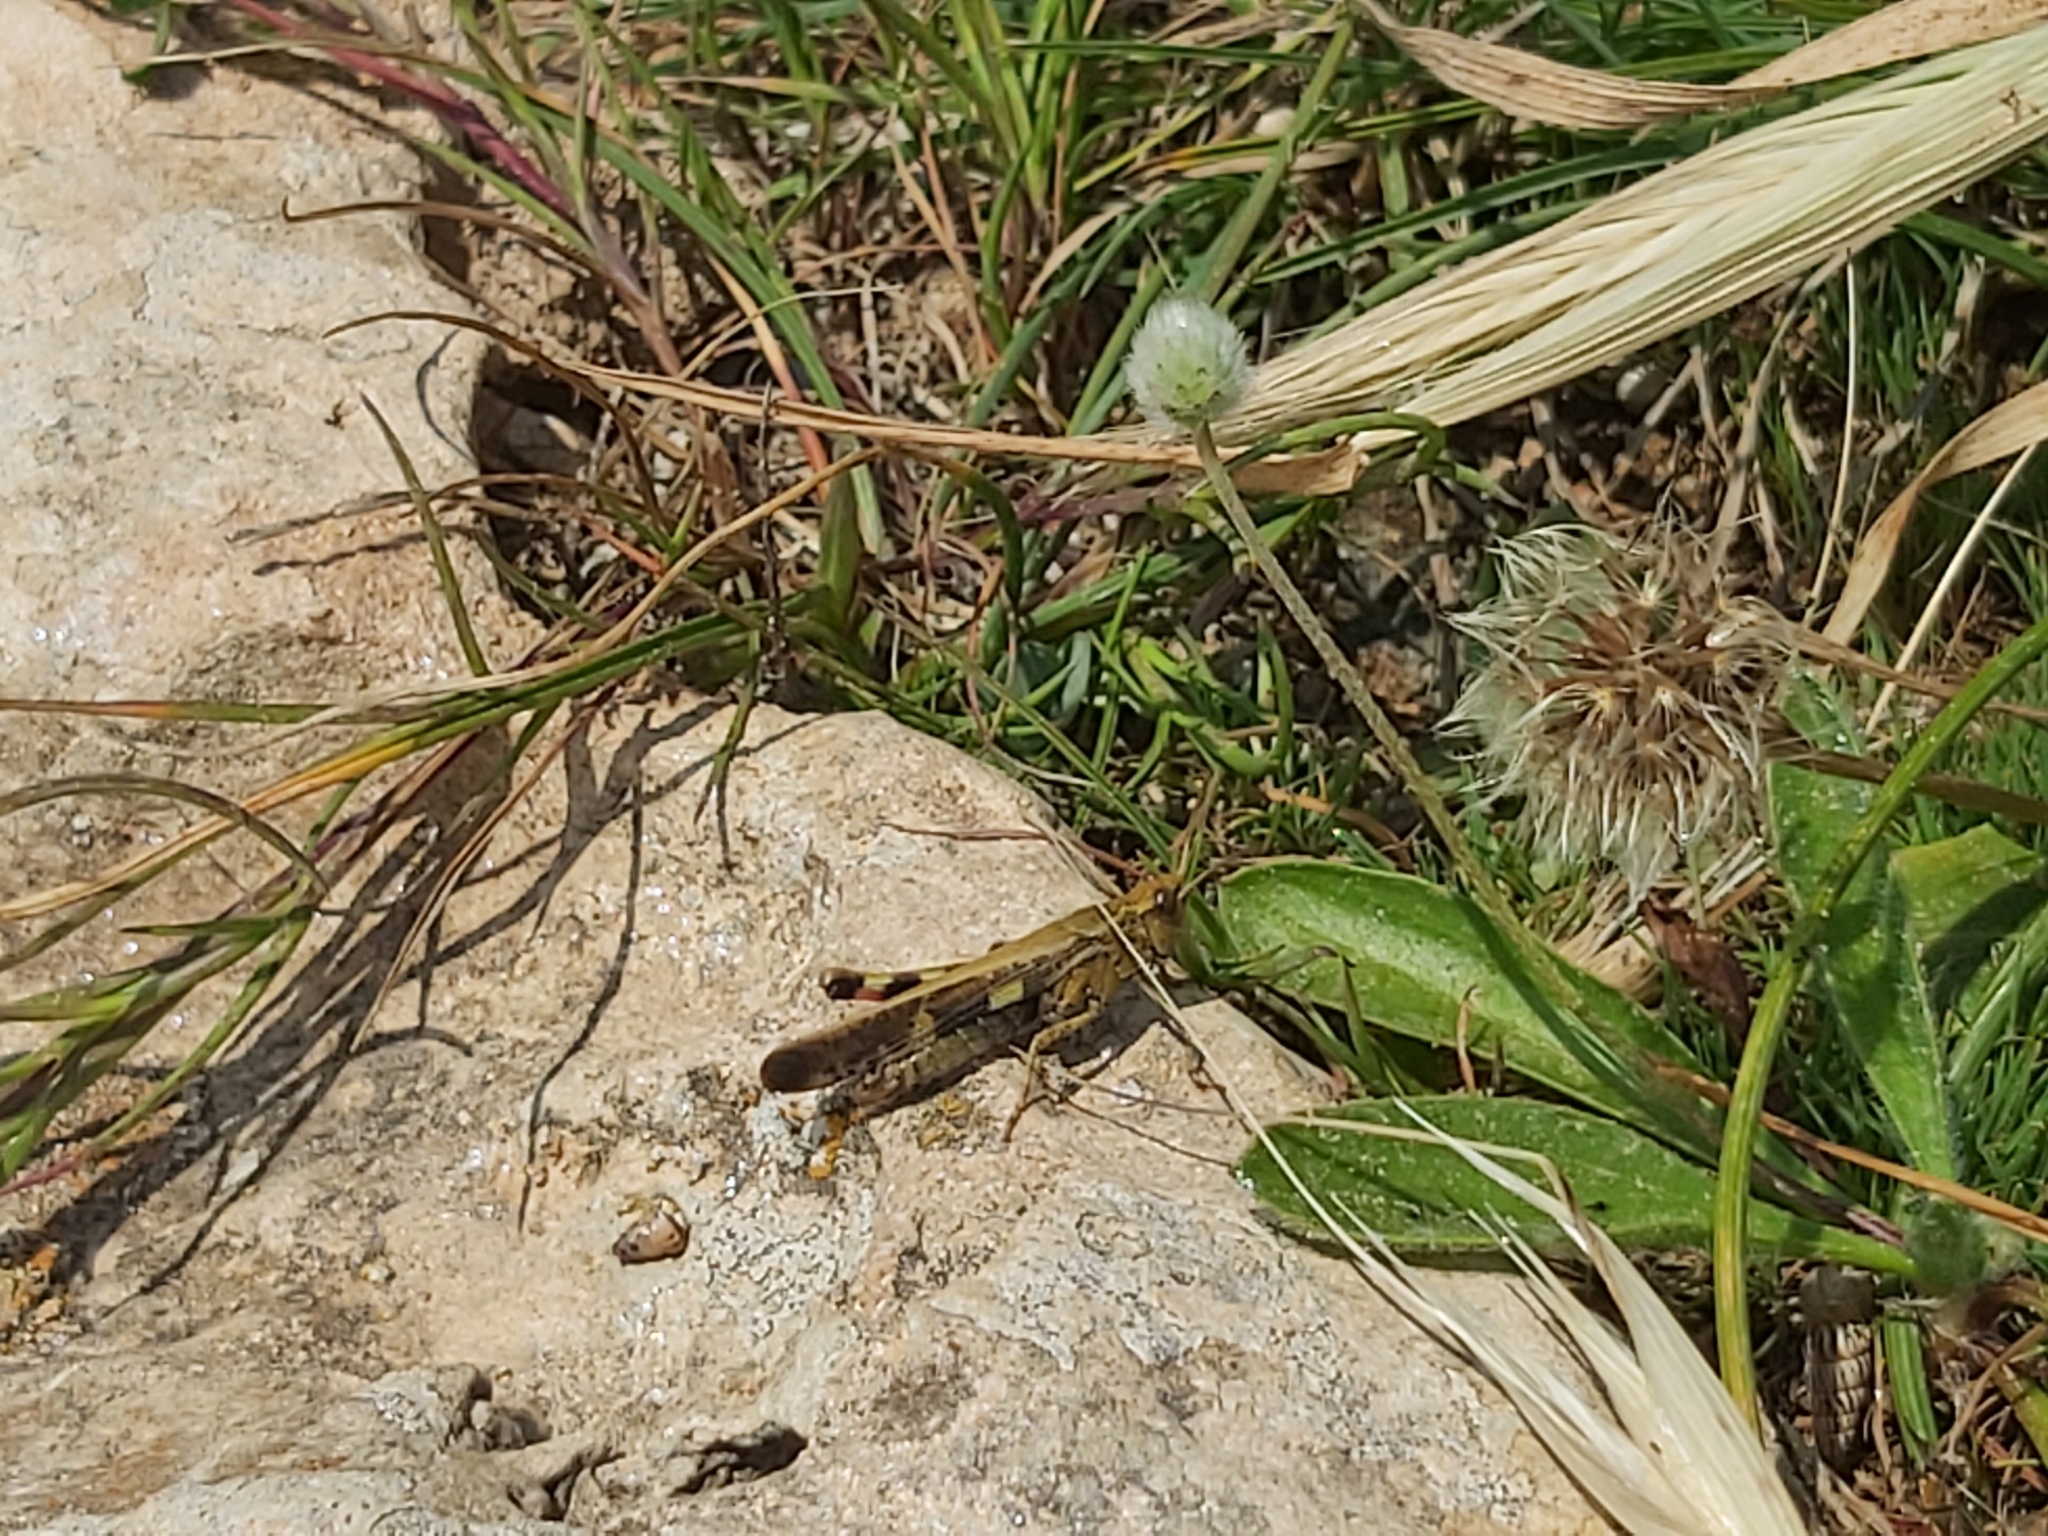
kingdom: Animalia
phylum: Arthropoda
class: Insecta
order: Orthoptera
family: Acrididae
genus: Aiolopus
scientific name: Aiolopus strepens
